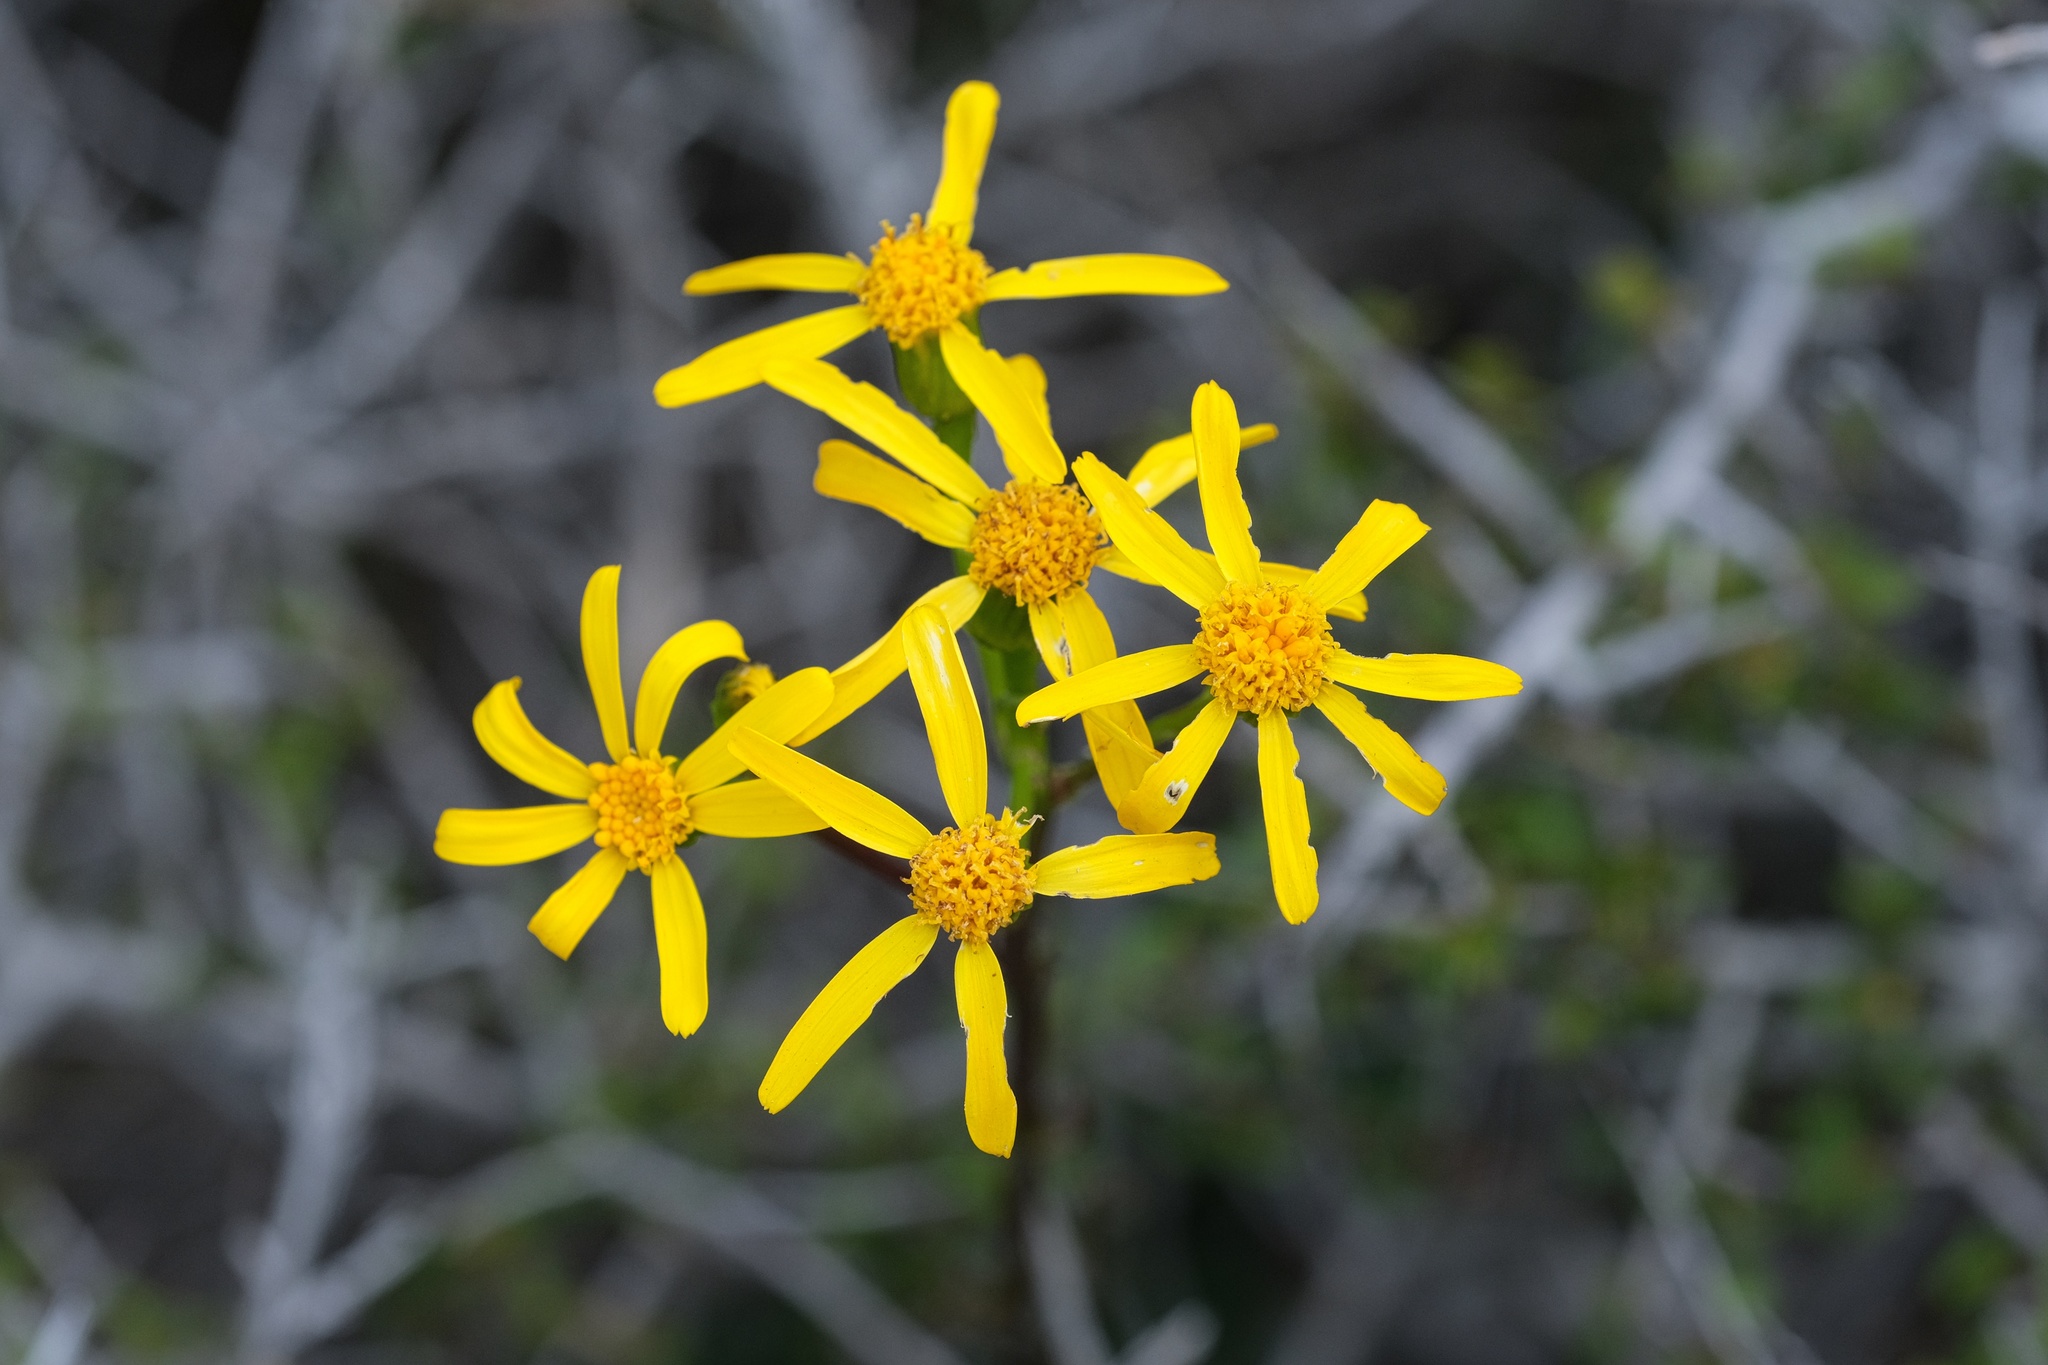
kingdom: Plantae
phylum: Tracheophyta
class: Magnoliopsida
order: Asterales
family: Asteraceae
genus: Packera
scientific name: Packera ganderi
